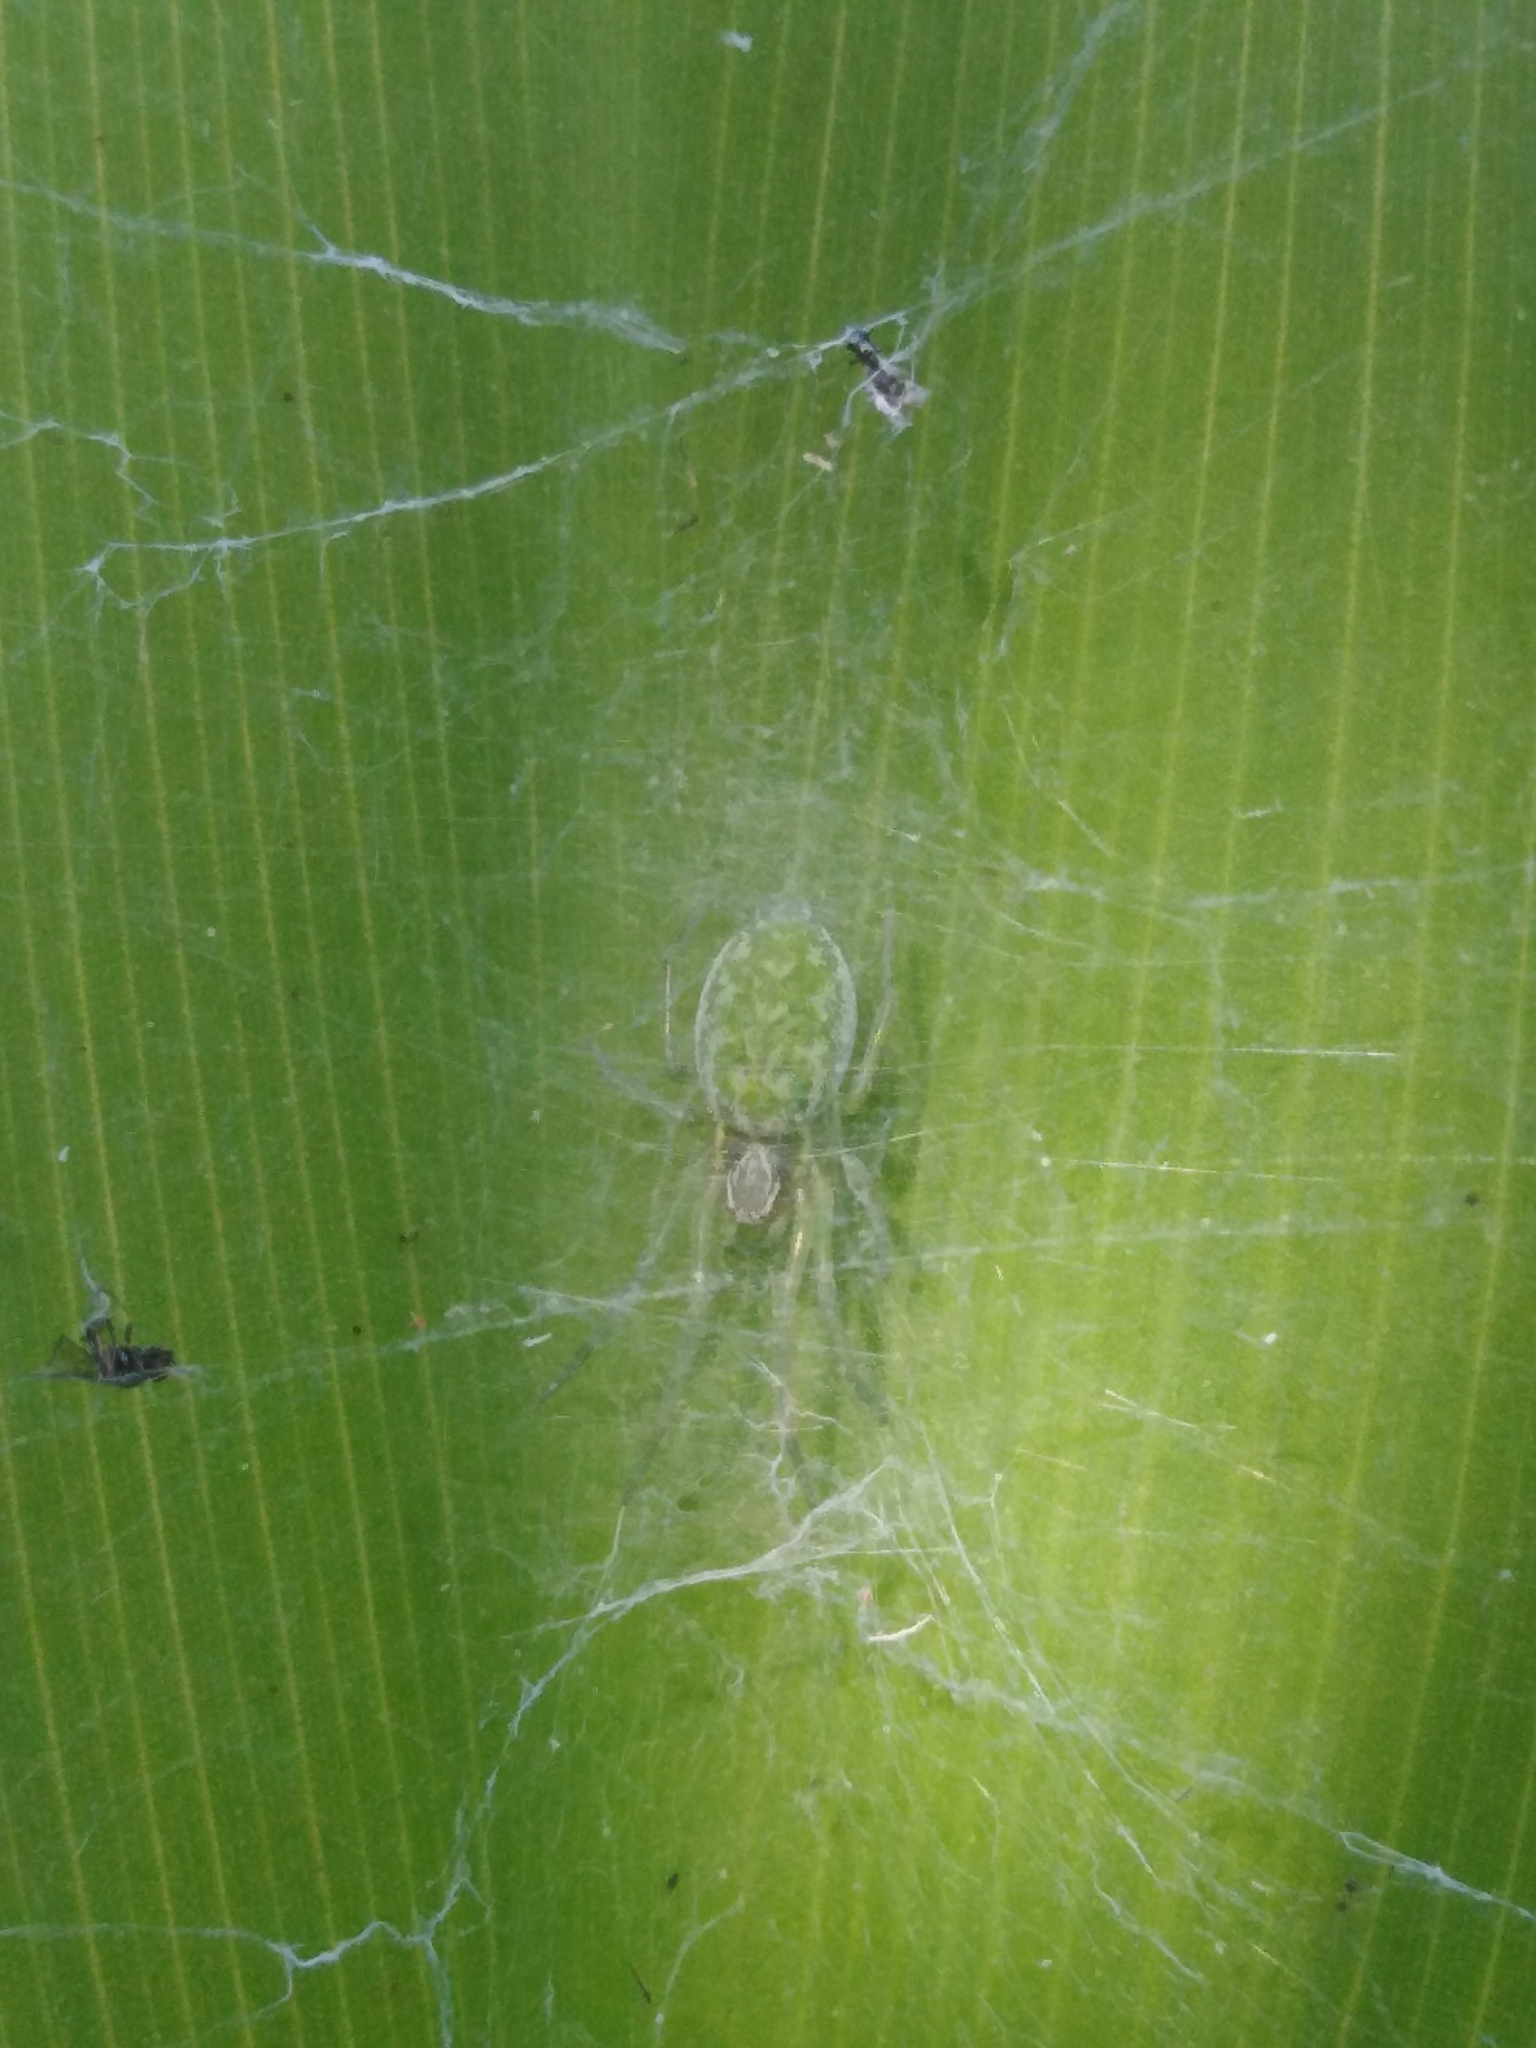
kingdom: Animalia
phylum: Arthropoda
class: Arachnida
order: Araneae
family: Dictynidae
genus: Nigma
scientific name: Nigma walckenaeri
